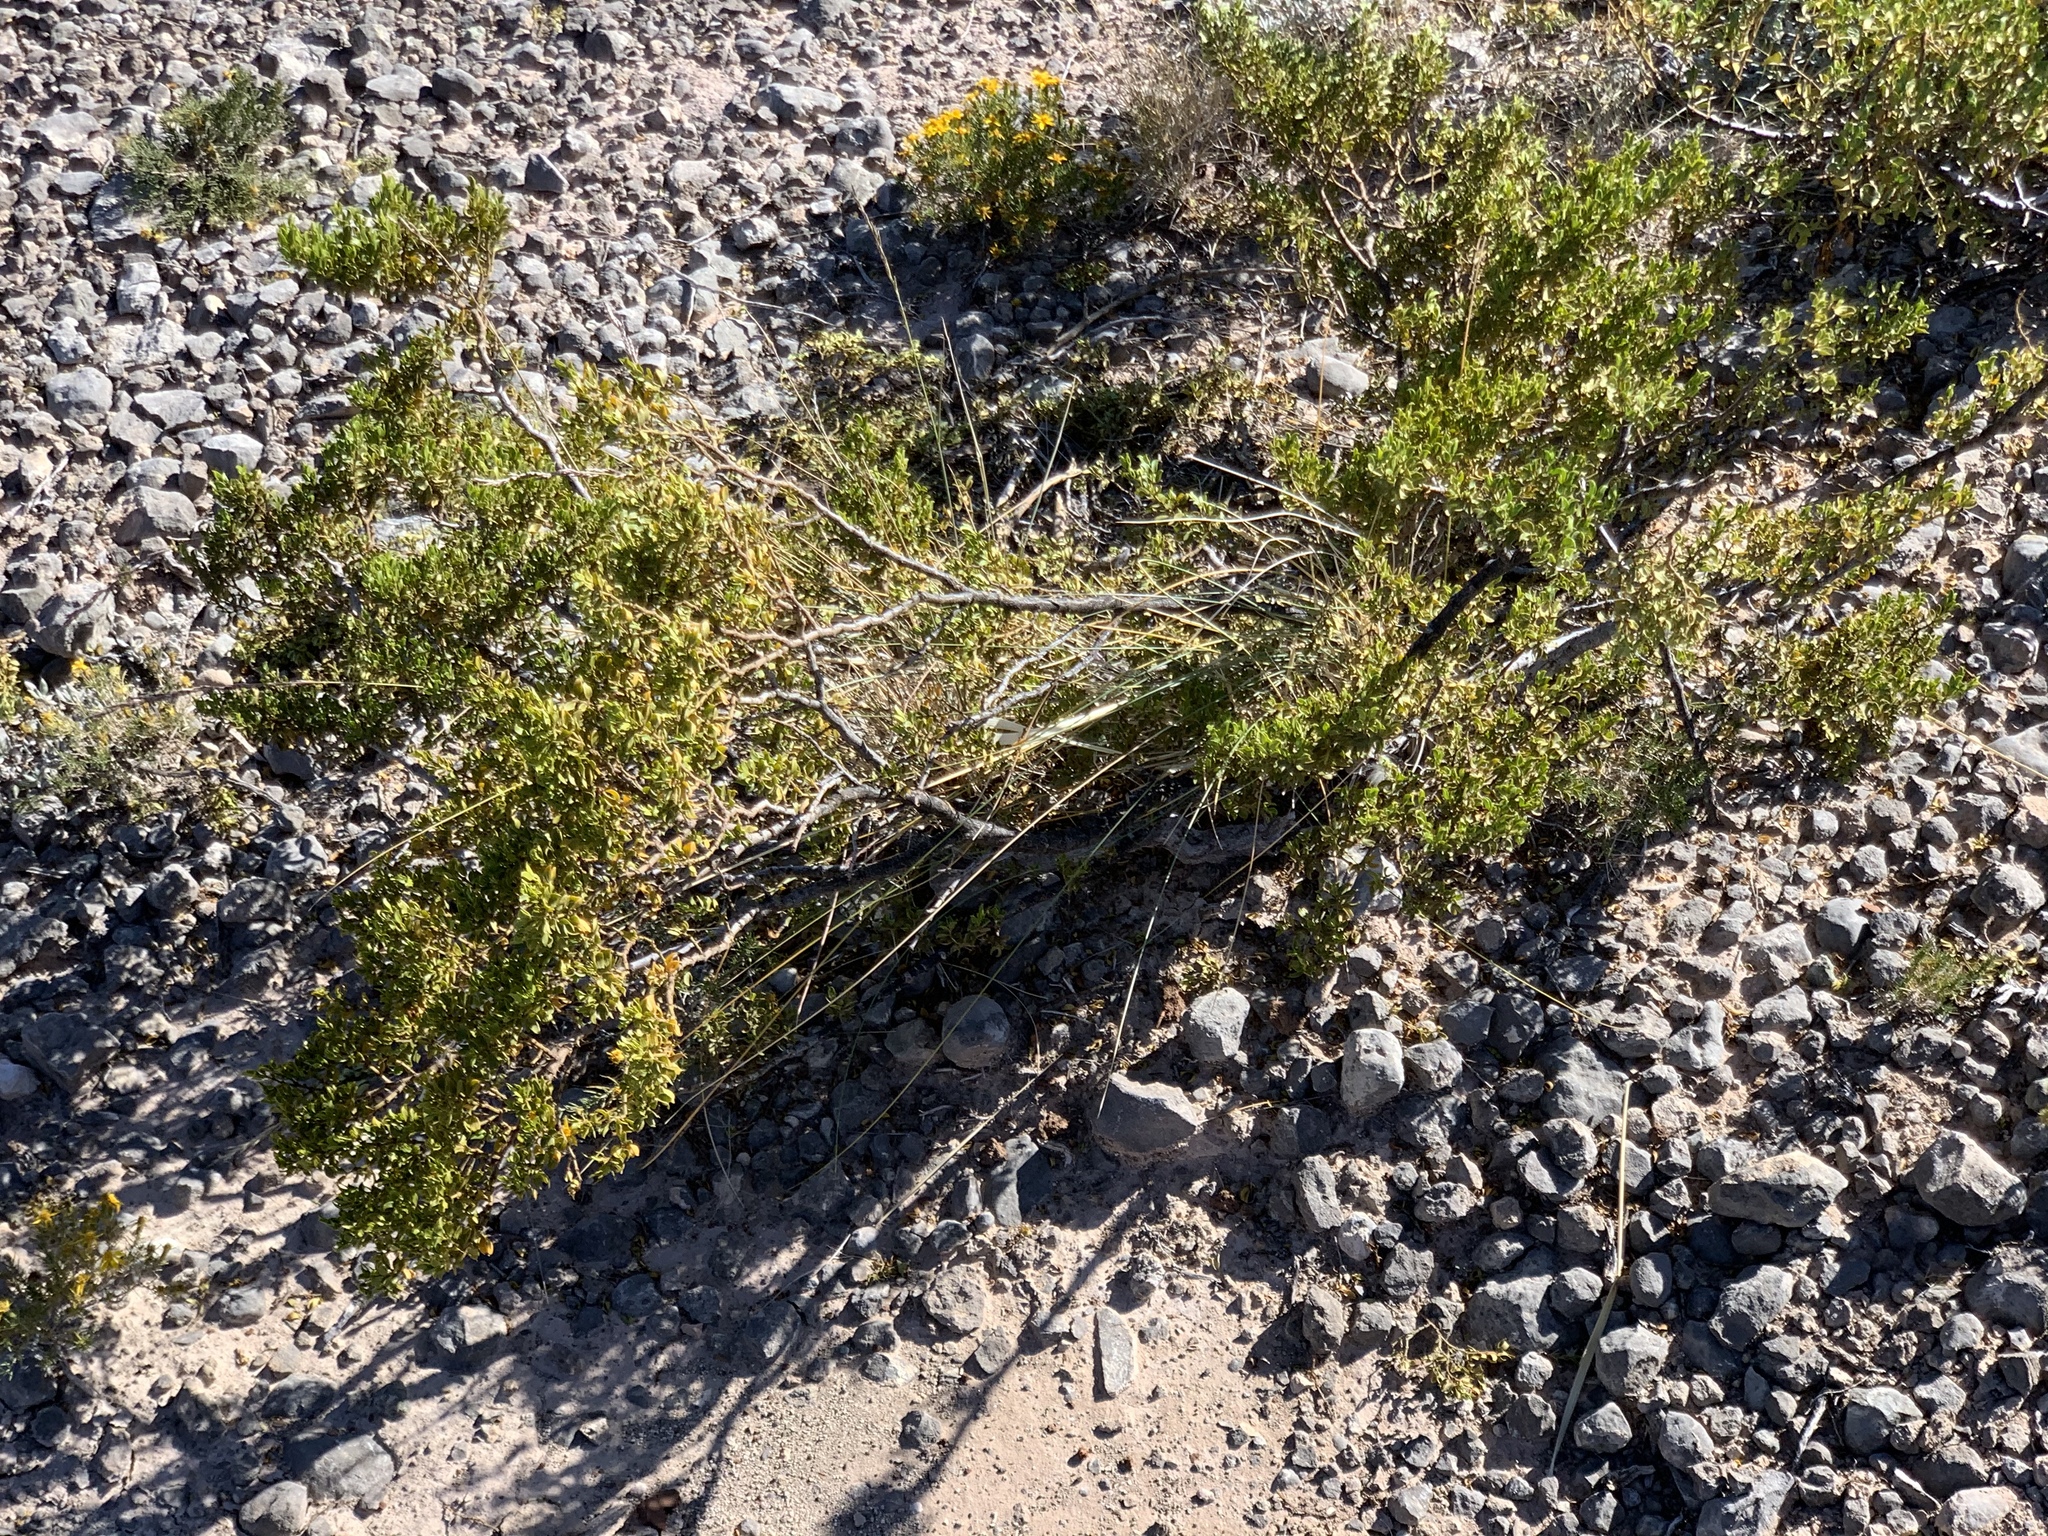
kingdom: Plantae
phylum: Tracheophyta
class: Magnoliopsida
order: Zygophyllales
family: Zygophyllaceae
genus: Larrea
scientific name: Larrea tridentata
